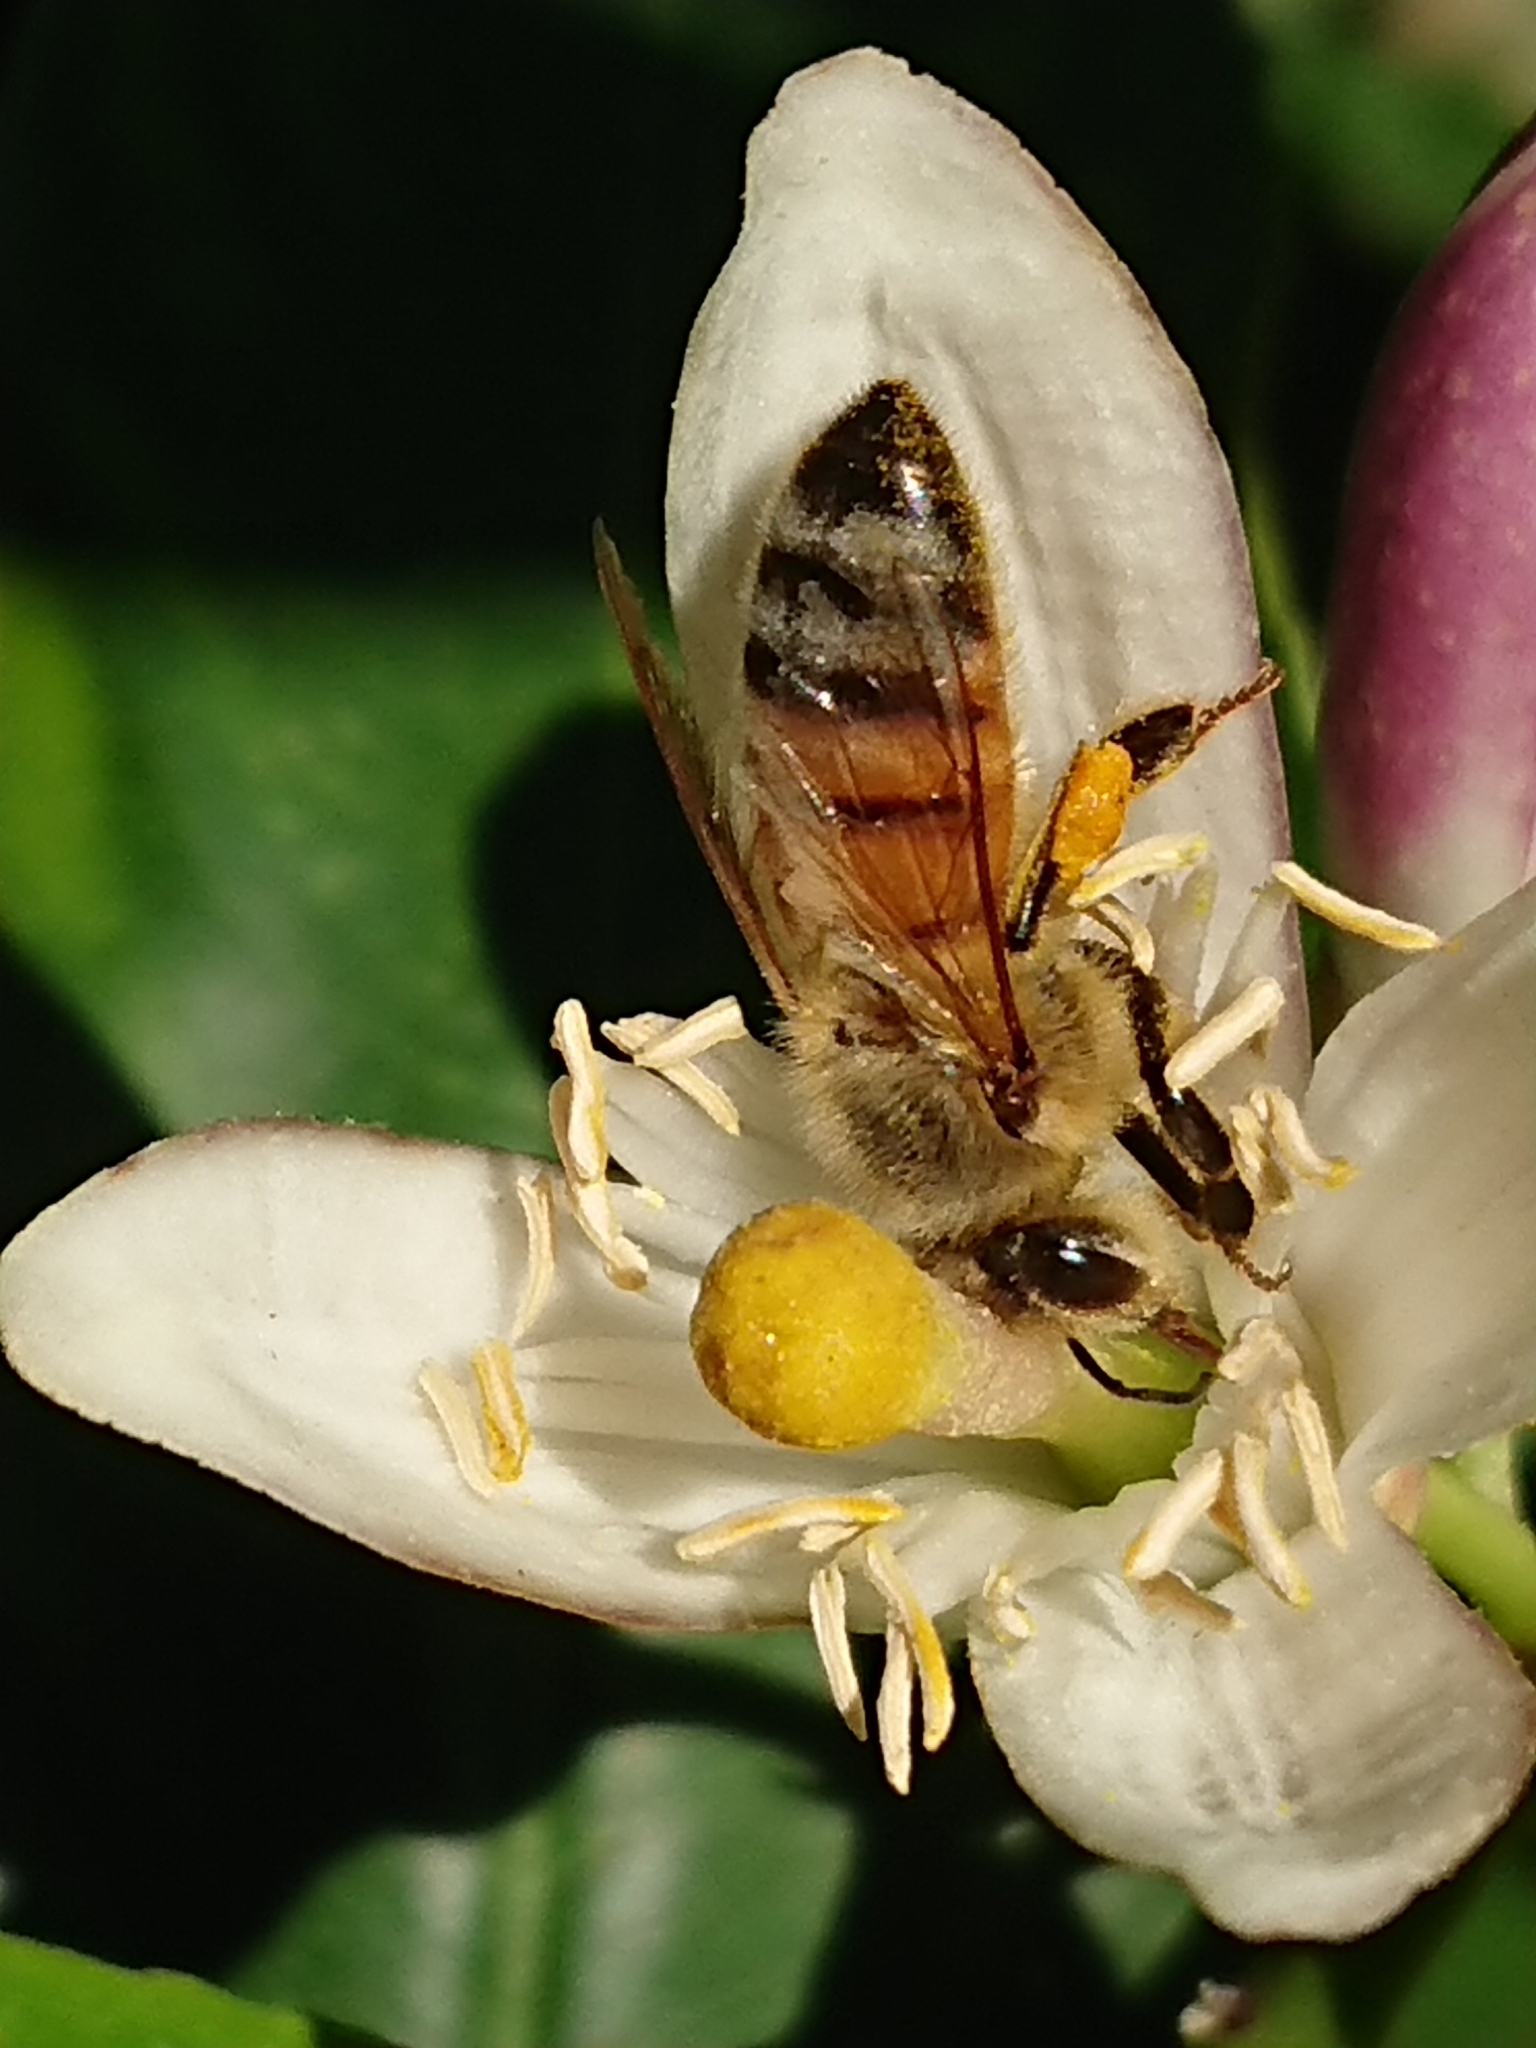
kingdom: Animalia
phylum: Arthropoda
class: Insecta
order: Hymenoptera
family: Apidae
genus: Apis
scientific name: Apis mellifera
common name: Honey bee
